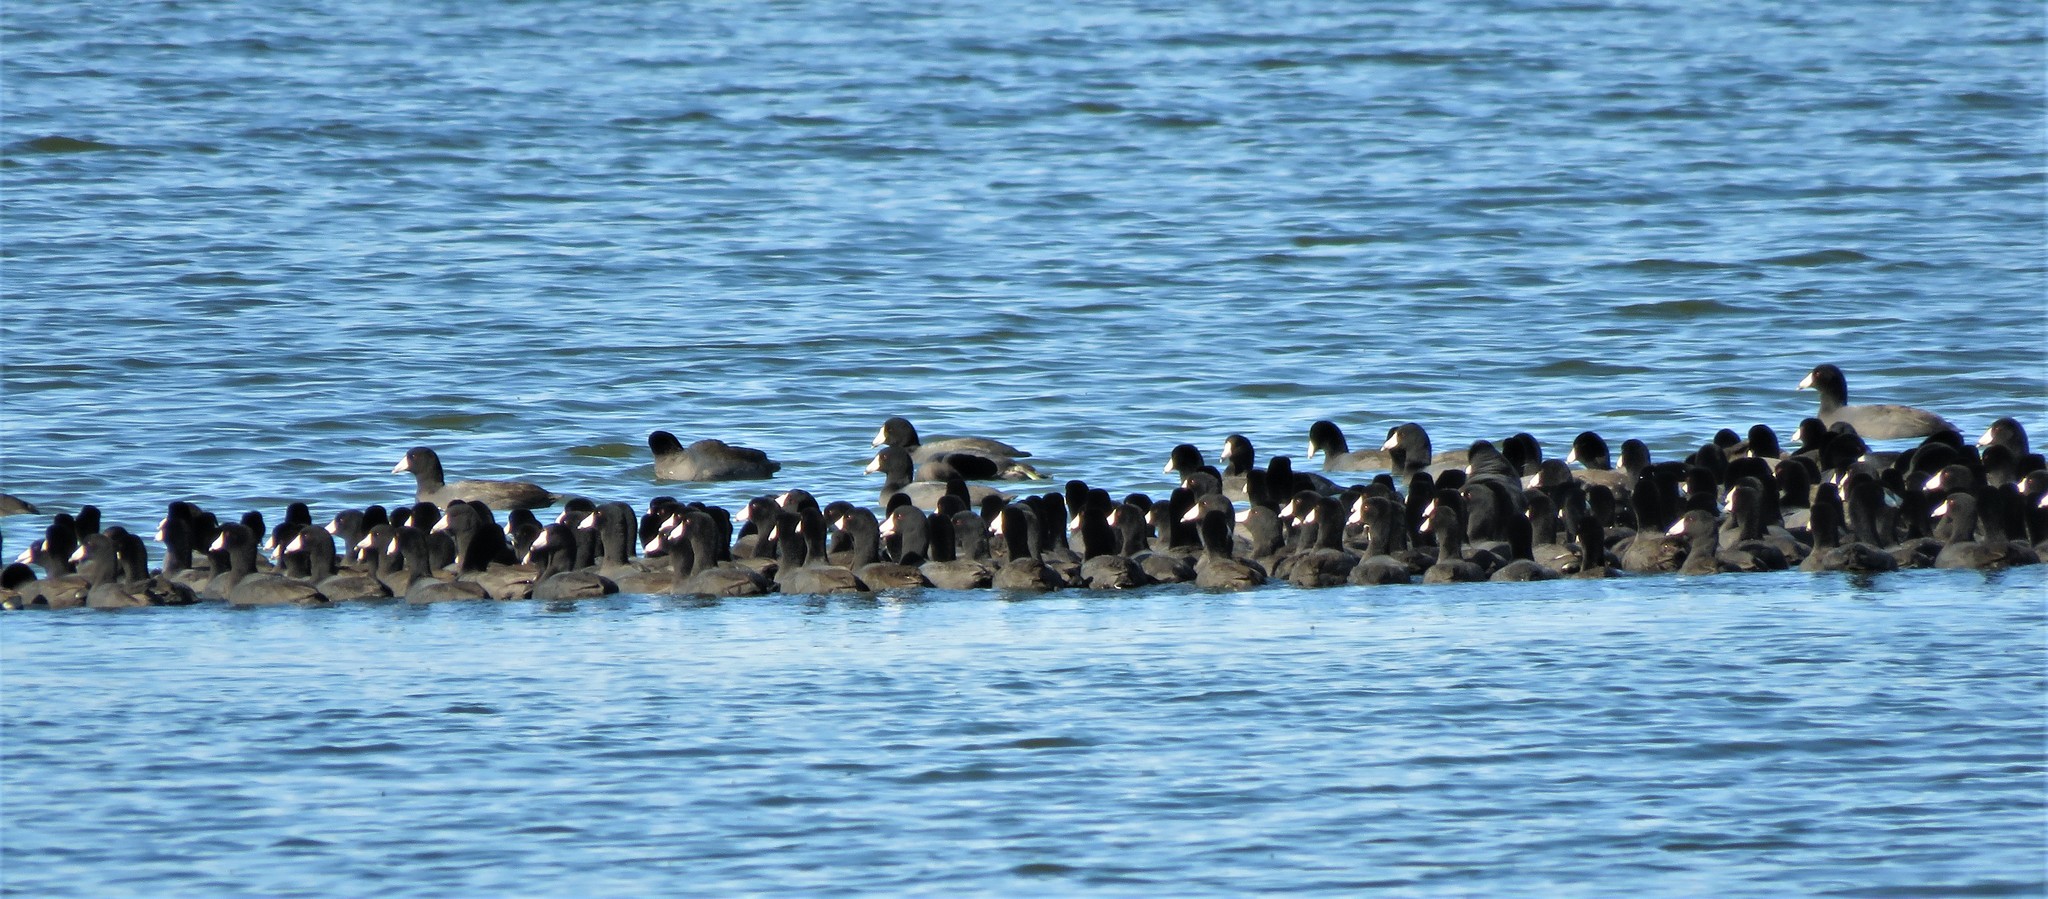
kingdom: Animalia
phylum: Chordata
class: Aves
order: Gruiformes
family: Rallidae
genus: Fulica
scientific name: Fulica americana
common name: American coot
